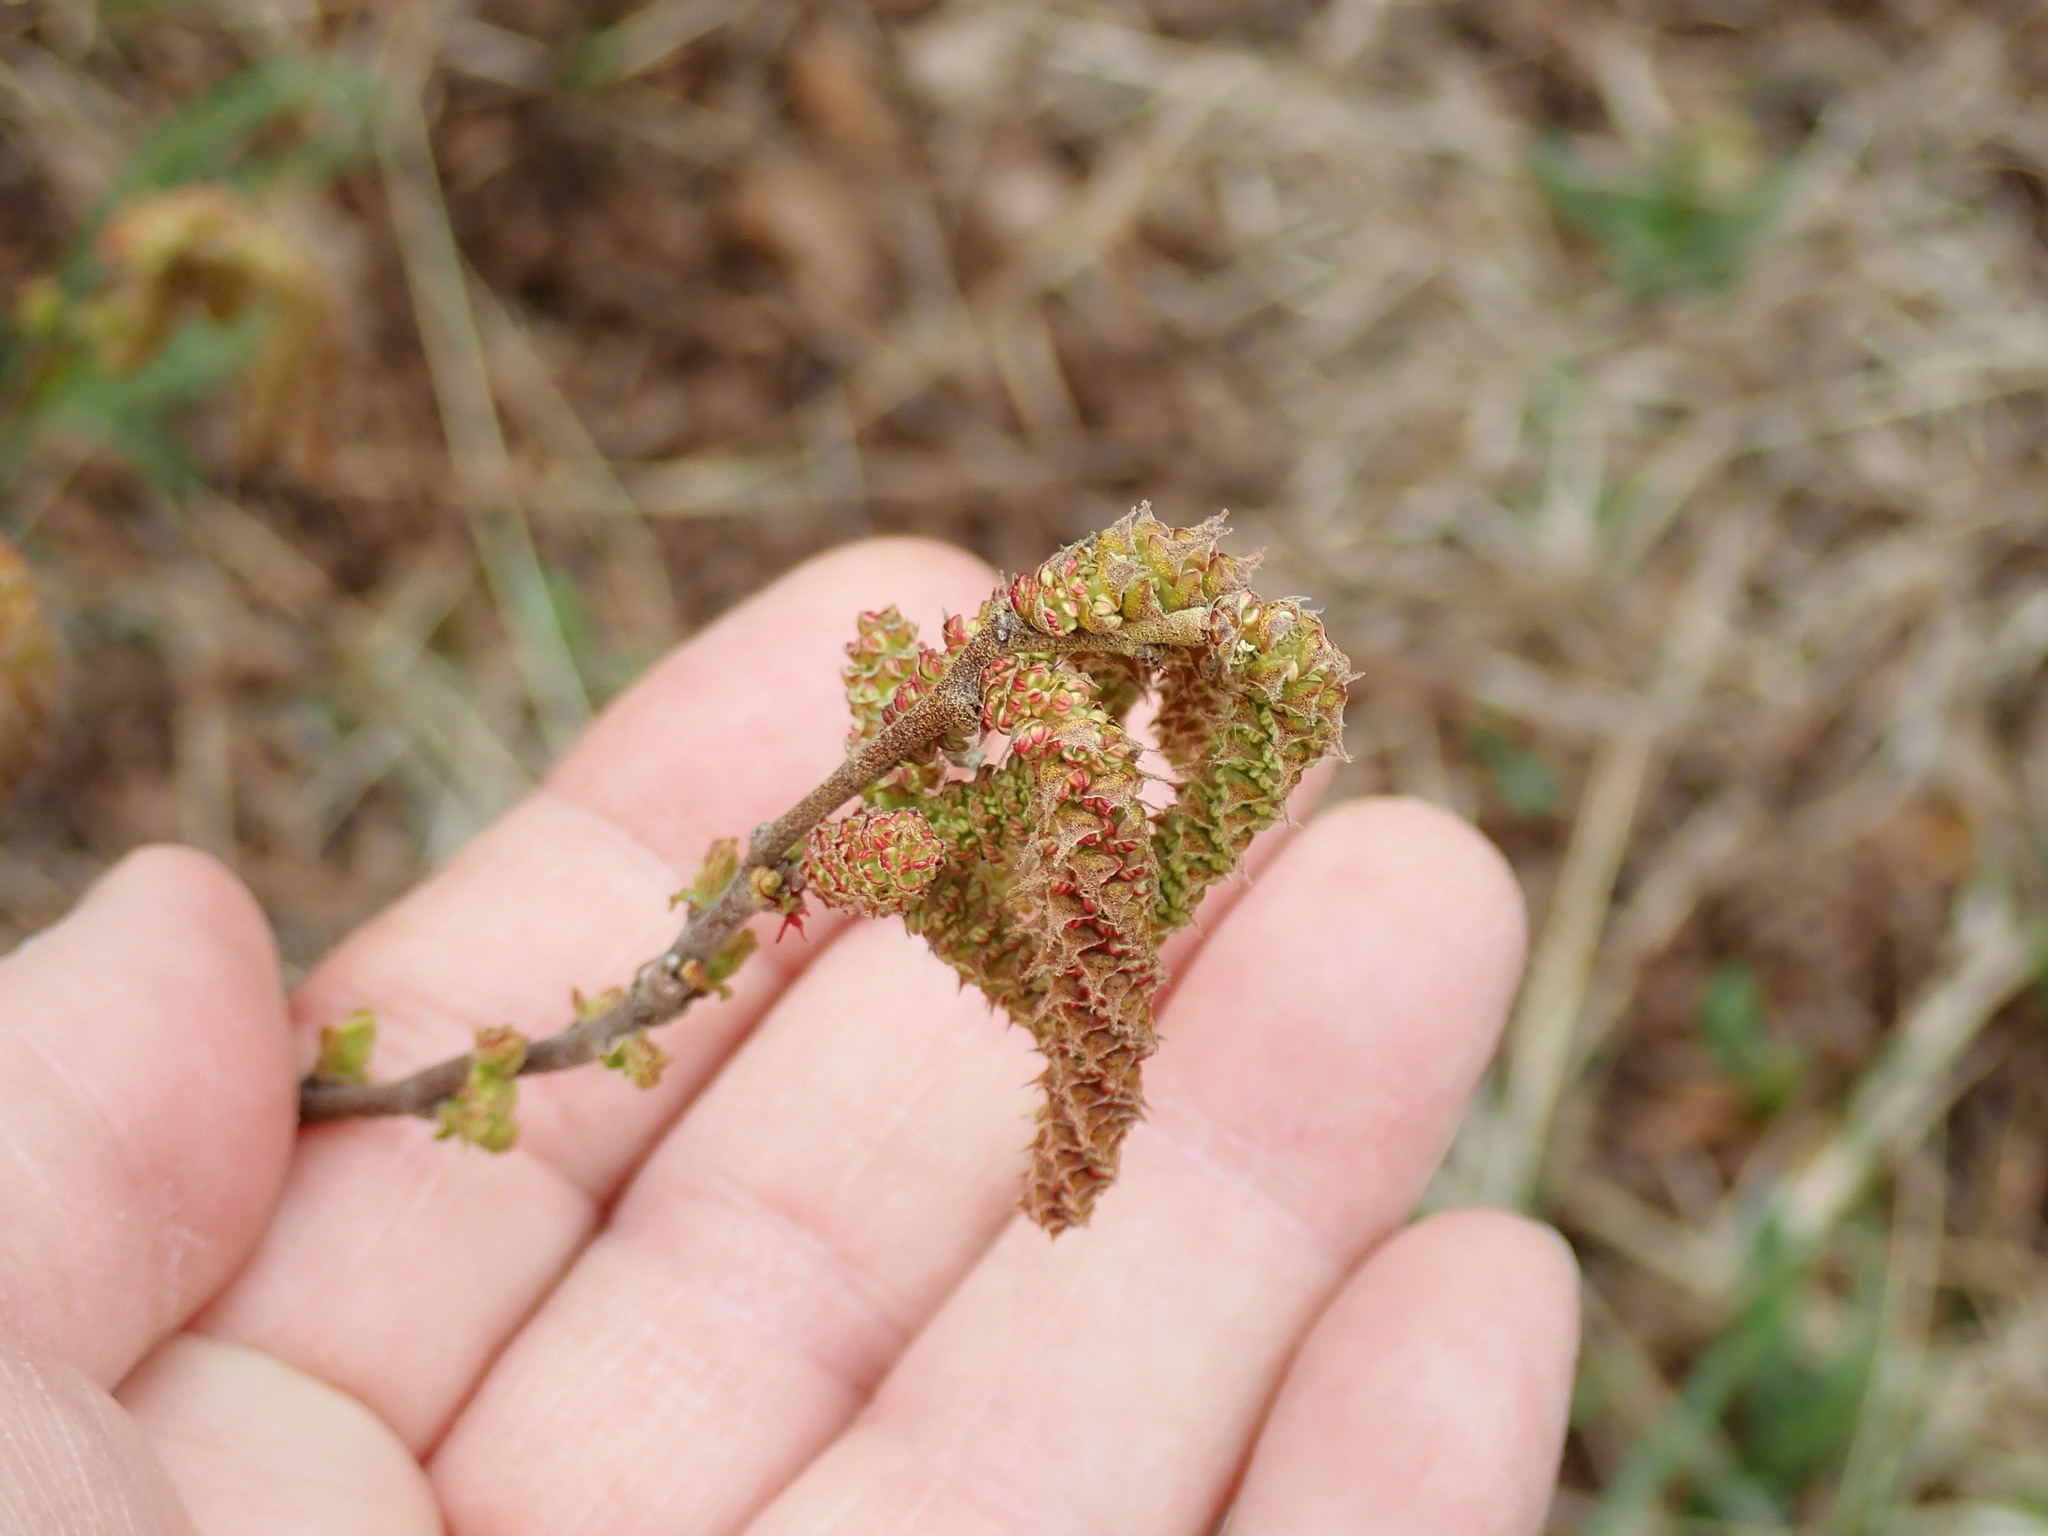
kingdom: Plantae
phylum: Tracheophyta
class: Magnoliopsida
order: Fagales
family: Myricaceae
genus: Comptonia
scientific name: Comptonia peregrina
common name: Sweet-fern
